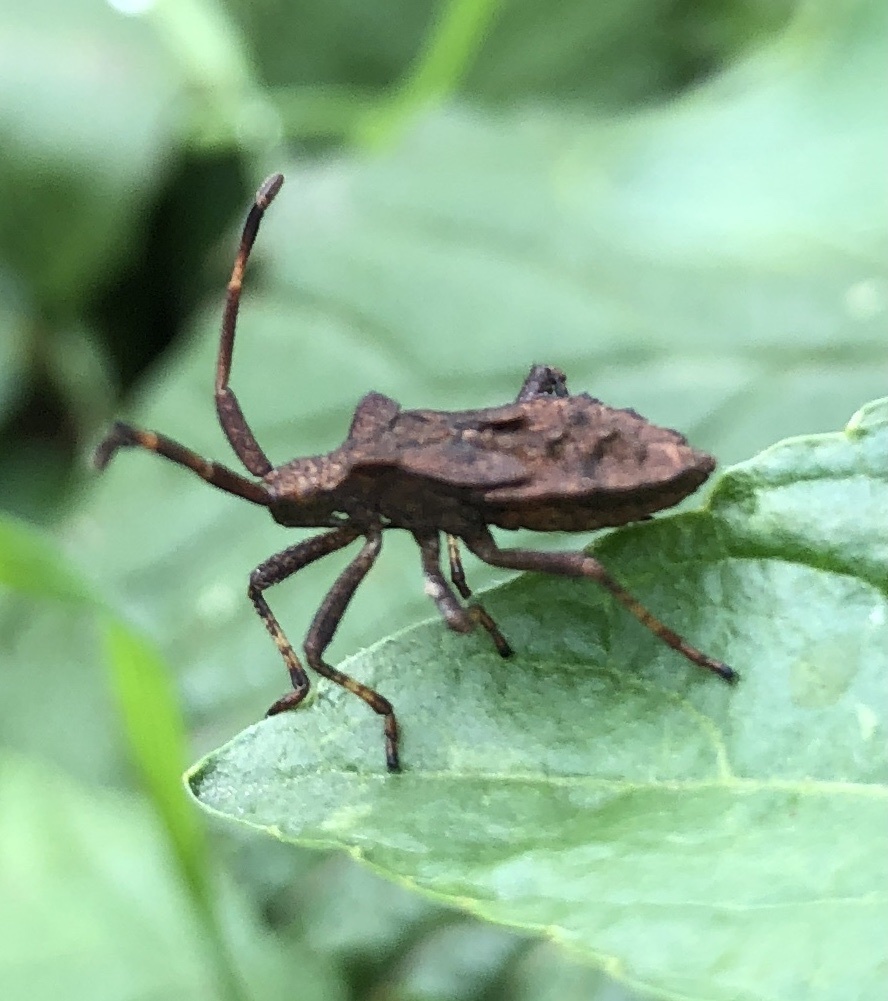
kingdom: Animalia
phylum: Arthropoda
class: Insecta
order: Hemiptera
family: Coreidae
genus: Coreus
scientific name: Coreus marginatus
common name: Dock bug
